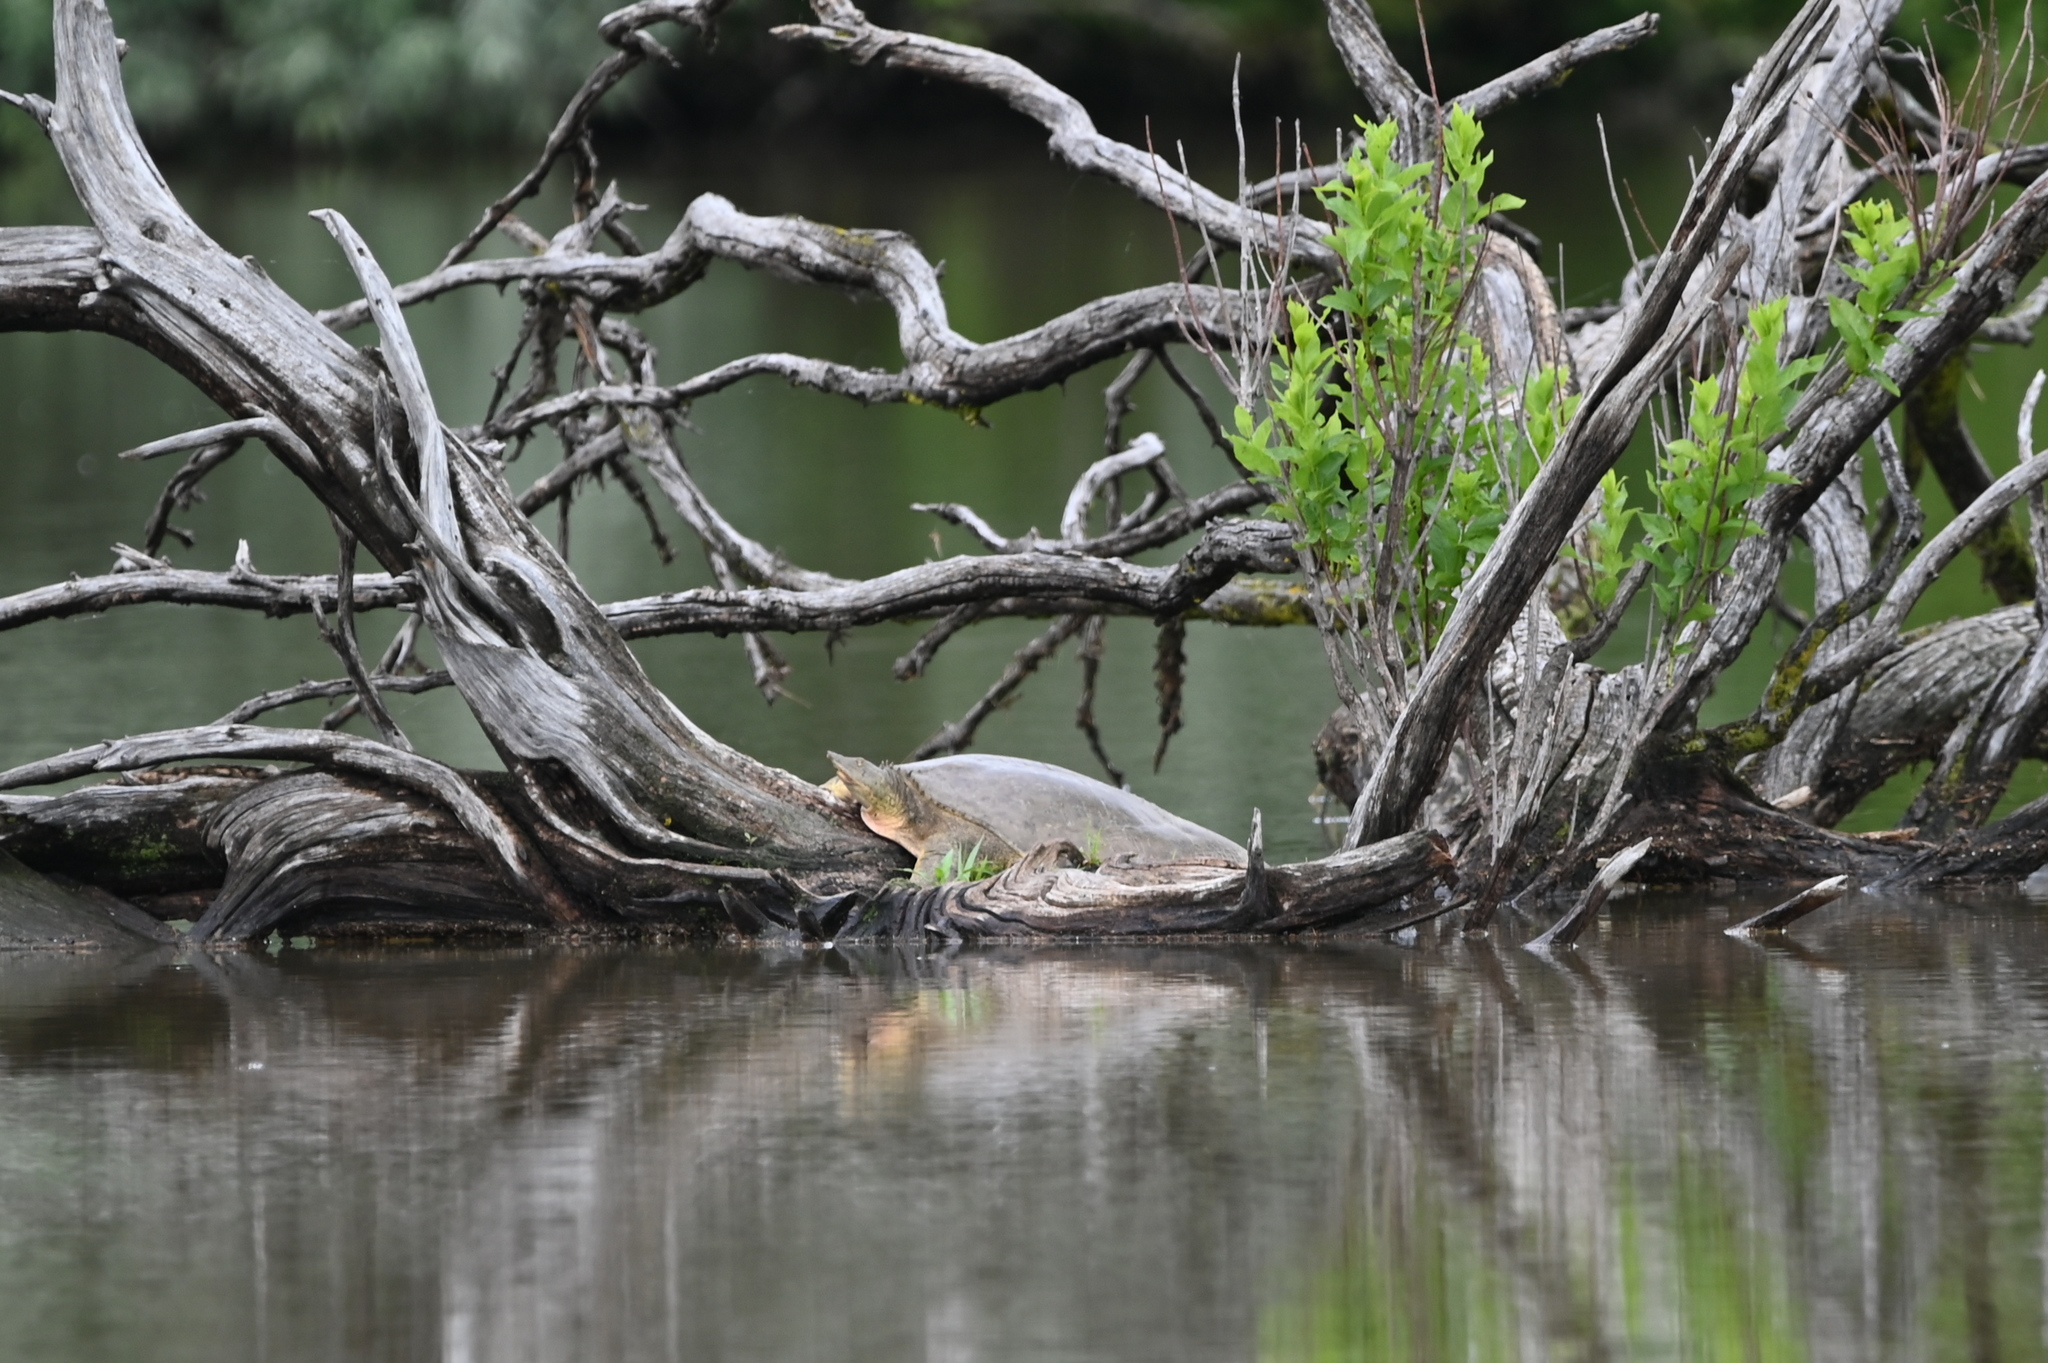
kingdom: Animalia
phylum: Chordata
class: Testudines
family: Trionychidae
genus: Apalone
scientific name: Apalone spinifera
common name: Spiny softshell turtle
